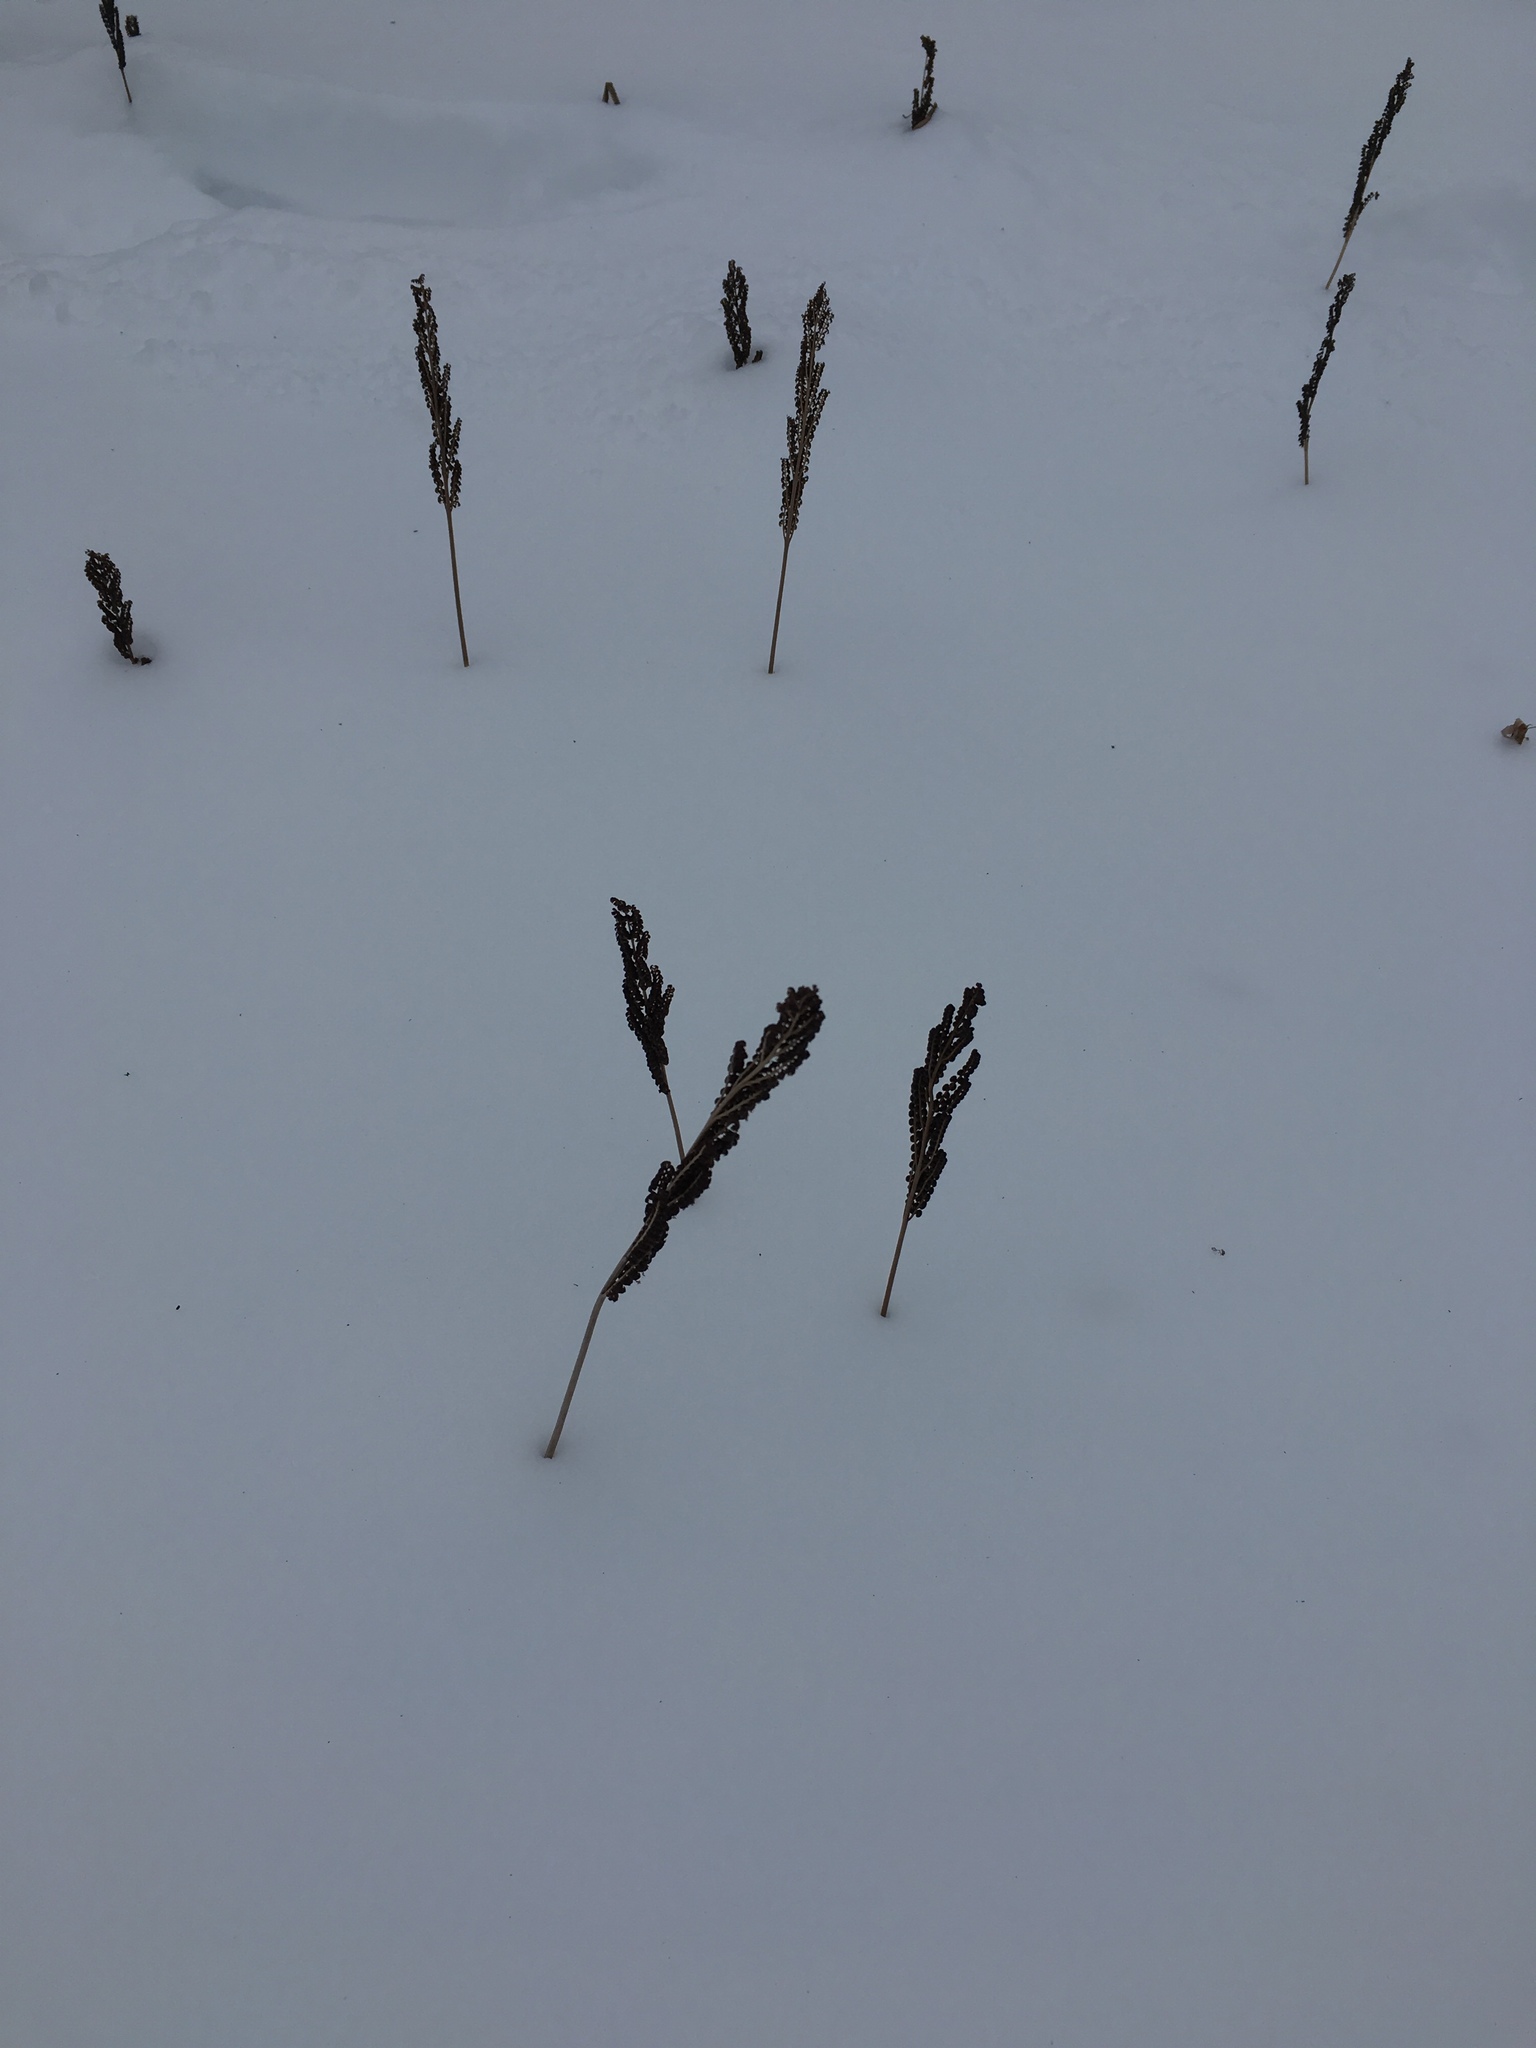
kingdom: Plantae
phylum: Tracheophyta
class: Polypodiopsida
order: Polypodiales
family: Onocleaceae
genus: Onoclea
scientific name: Onoclea sensibilis
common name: Sensitive fern
